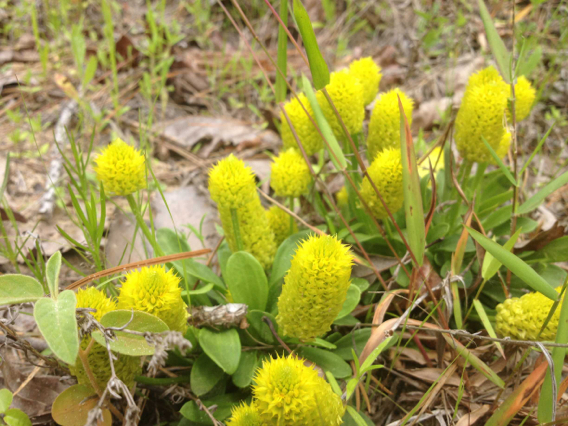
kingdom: Plantae
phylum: Tracheophyta
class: Magnoliopsida
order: Fabales
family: Polygalaceae
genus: Polygala
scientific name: Polygala nana
